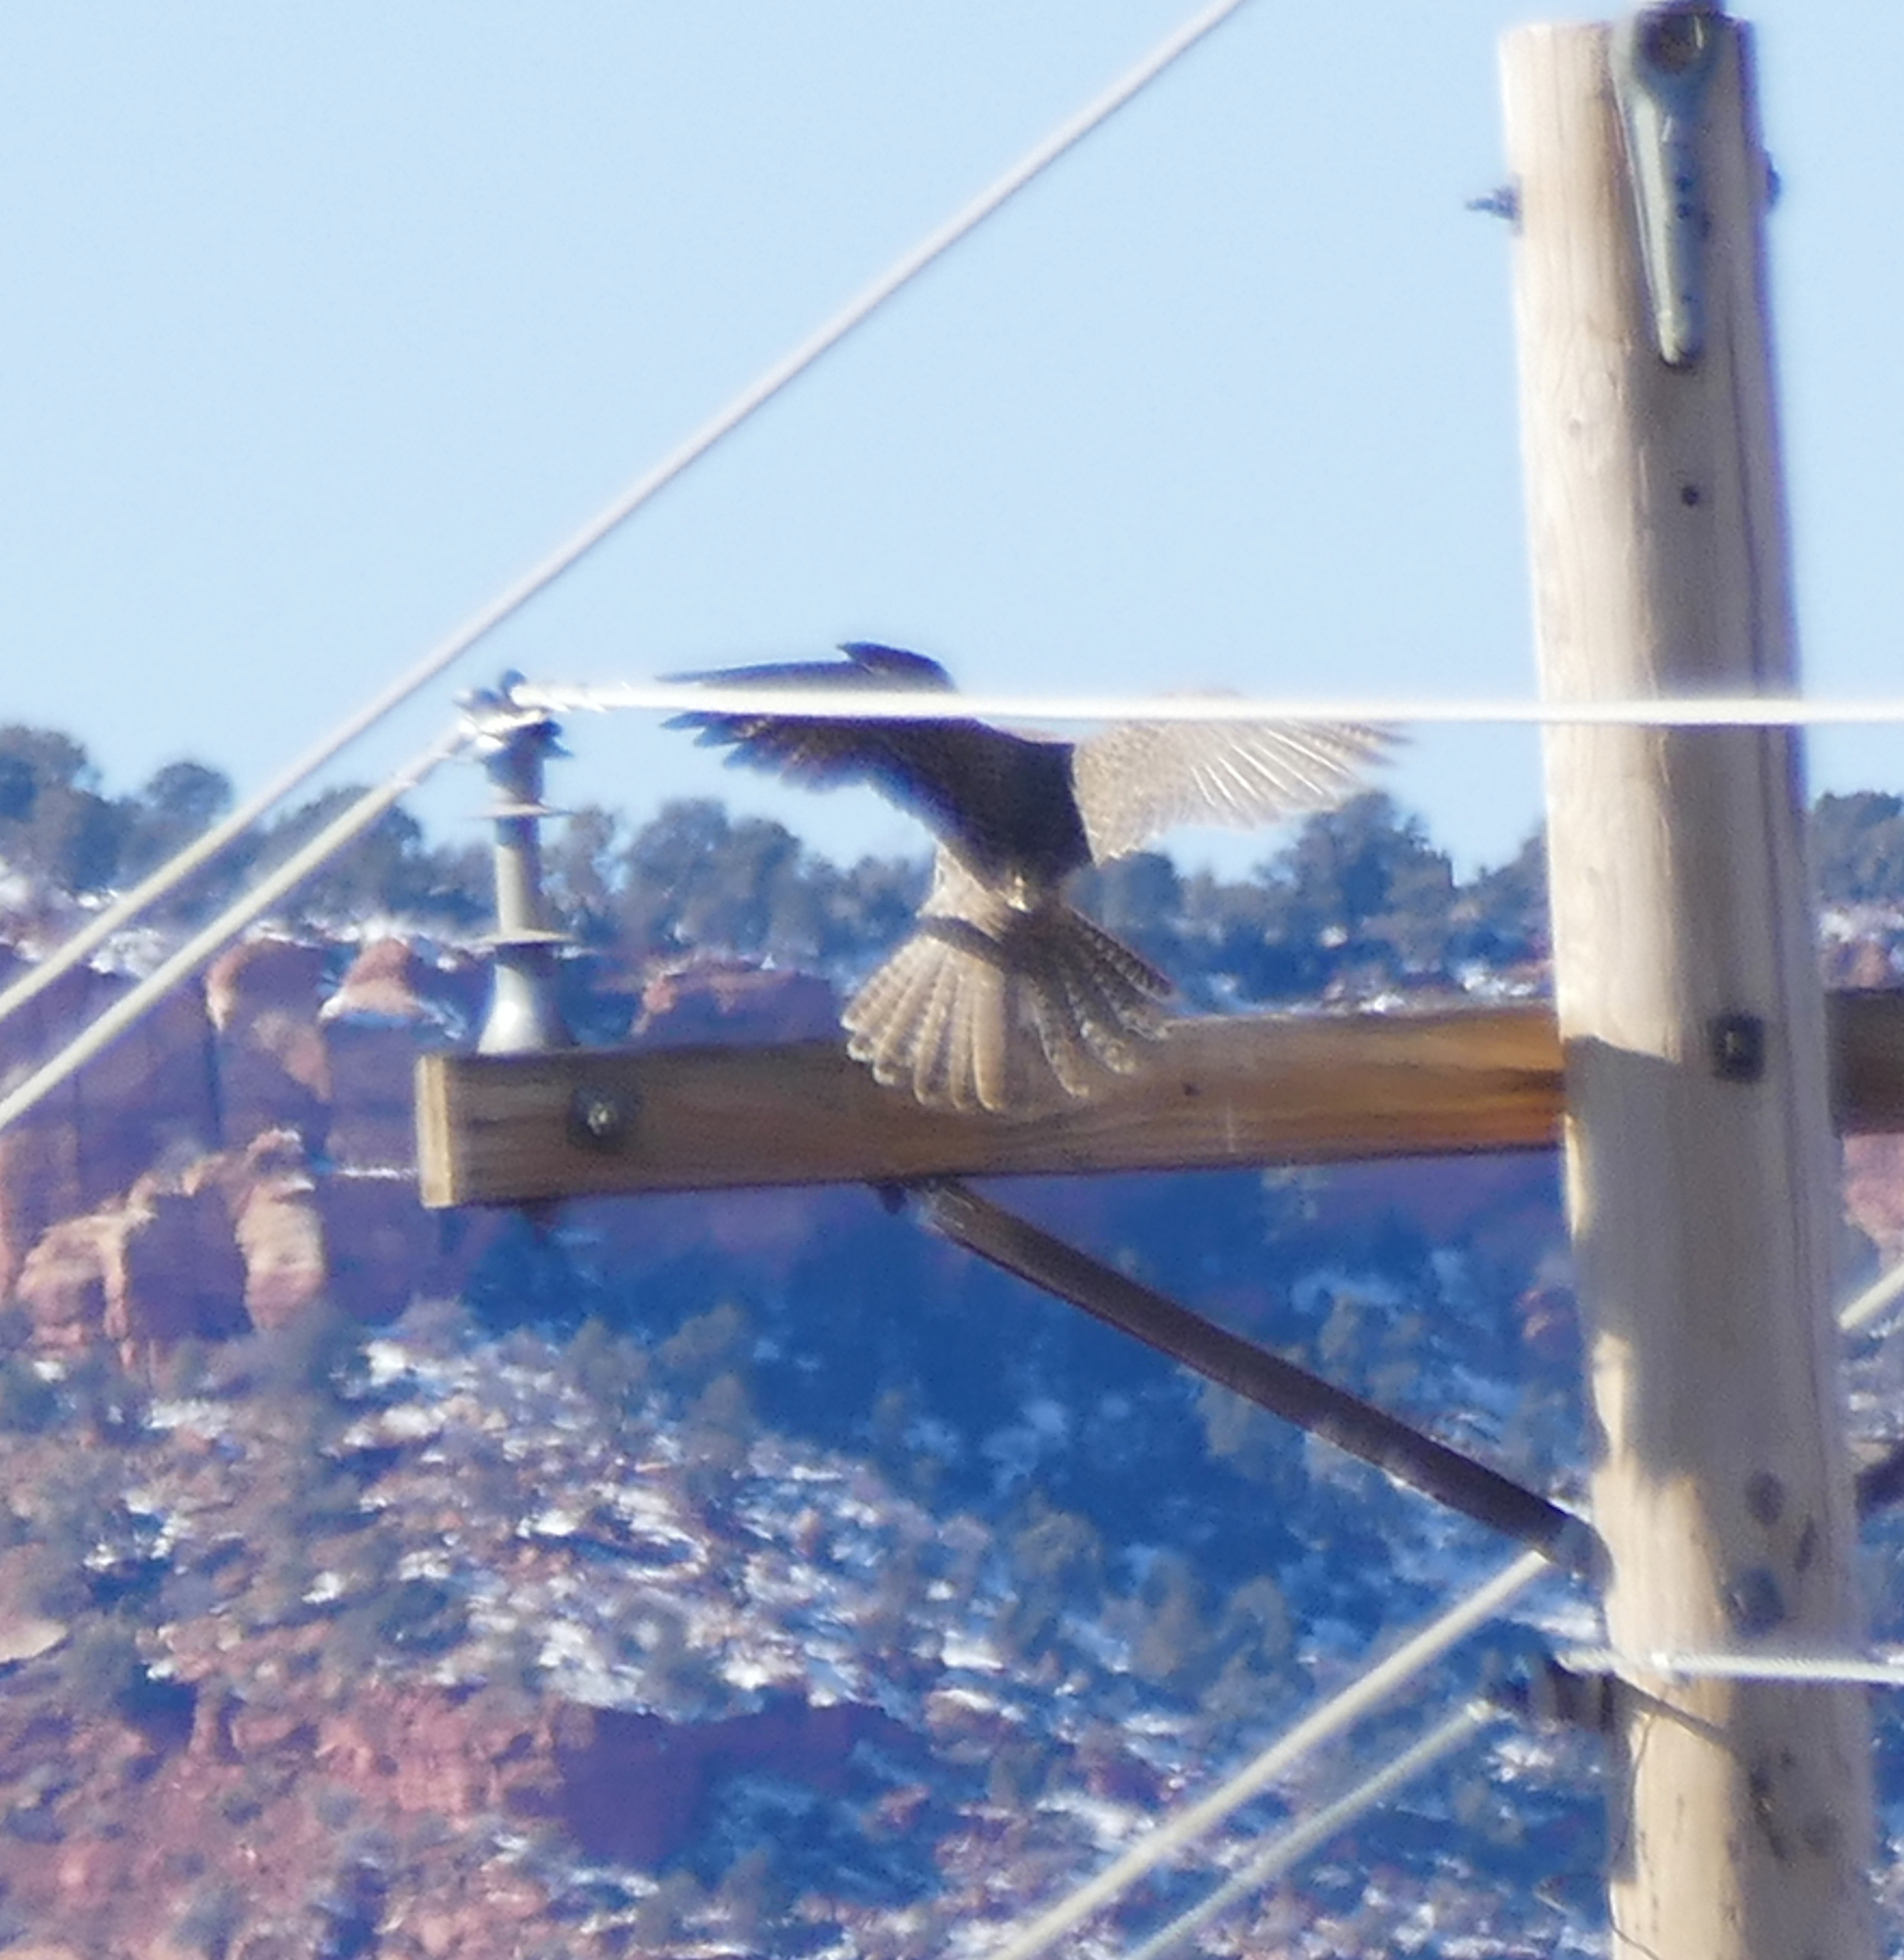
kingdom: Animalia
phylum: Chordata
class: Aves
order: Falconiformes
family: Falconidae
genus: Falco
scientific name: Falco mexicanus
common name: Prairie falcon
